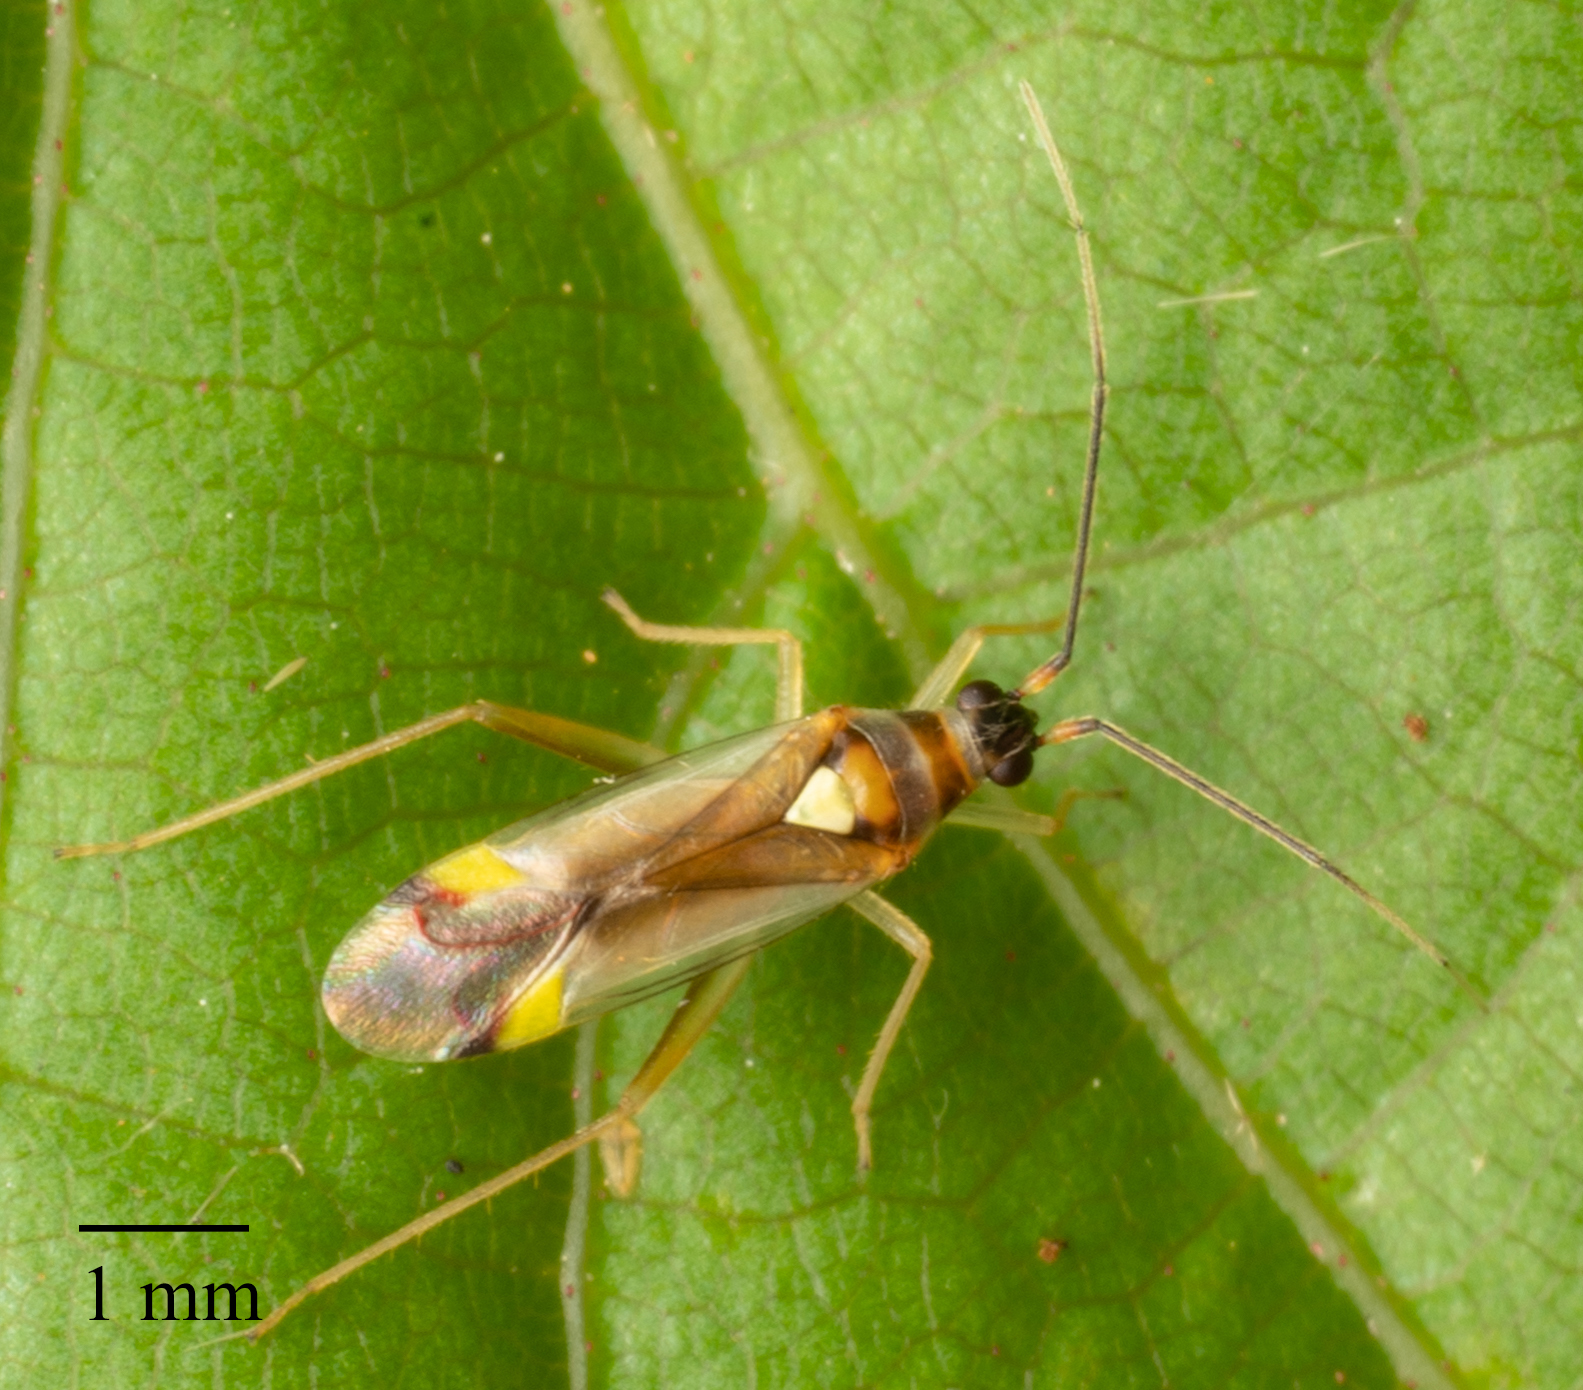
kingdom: Animalia
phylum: Arthropoda
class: Insecta
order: Hemiptera
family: Miridae
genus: Campyloneura
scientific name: Campyloneura virgula
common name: Predatory bug
